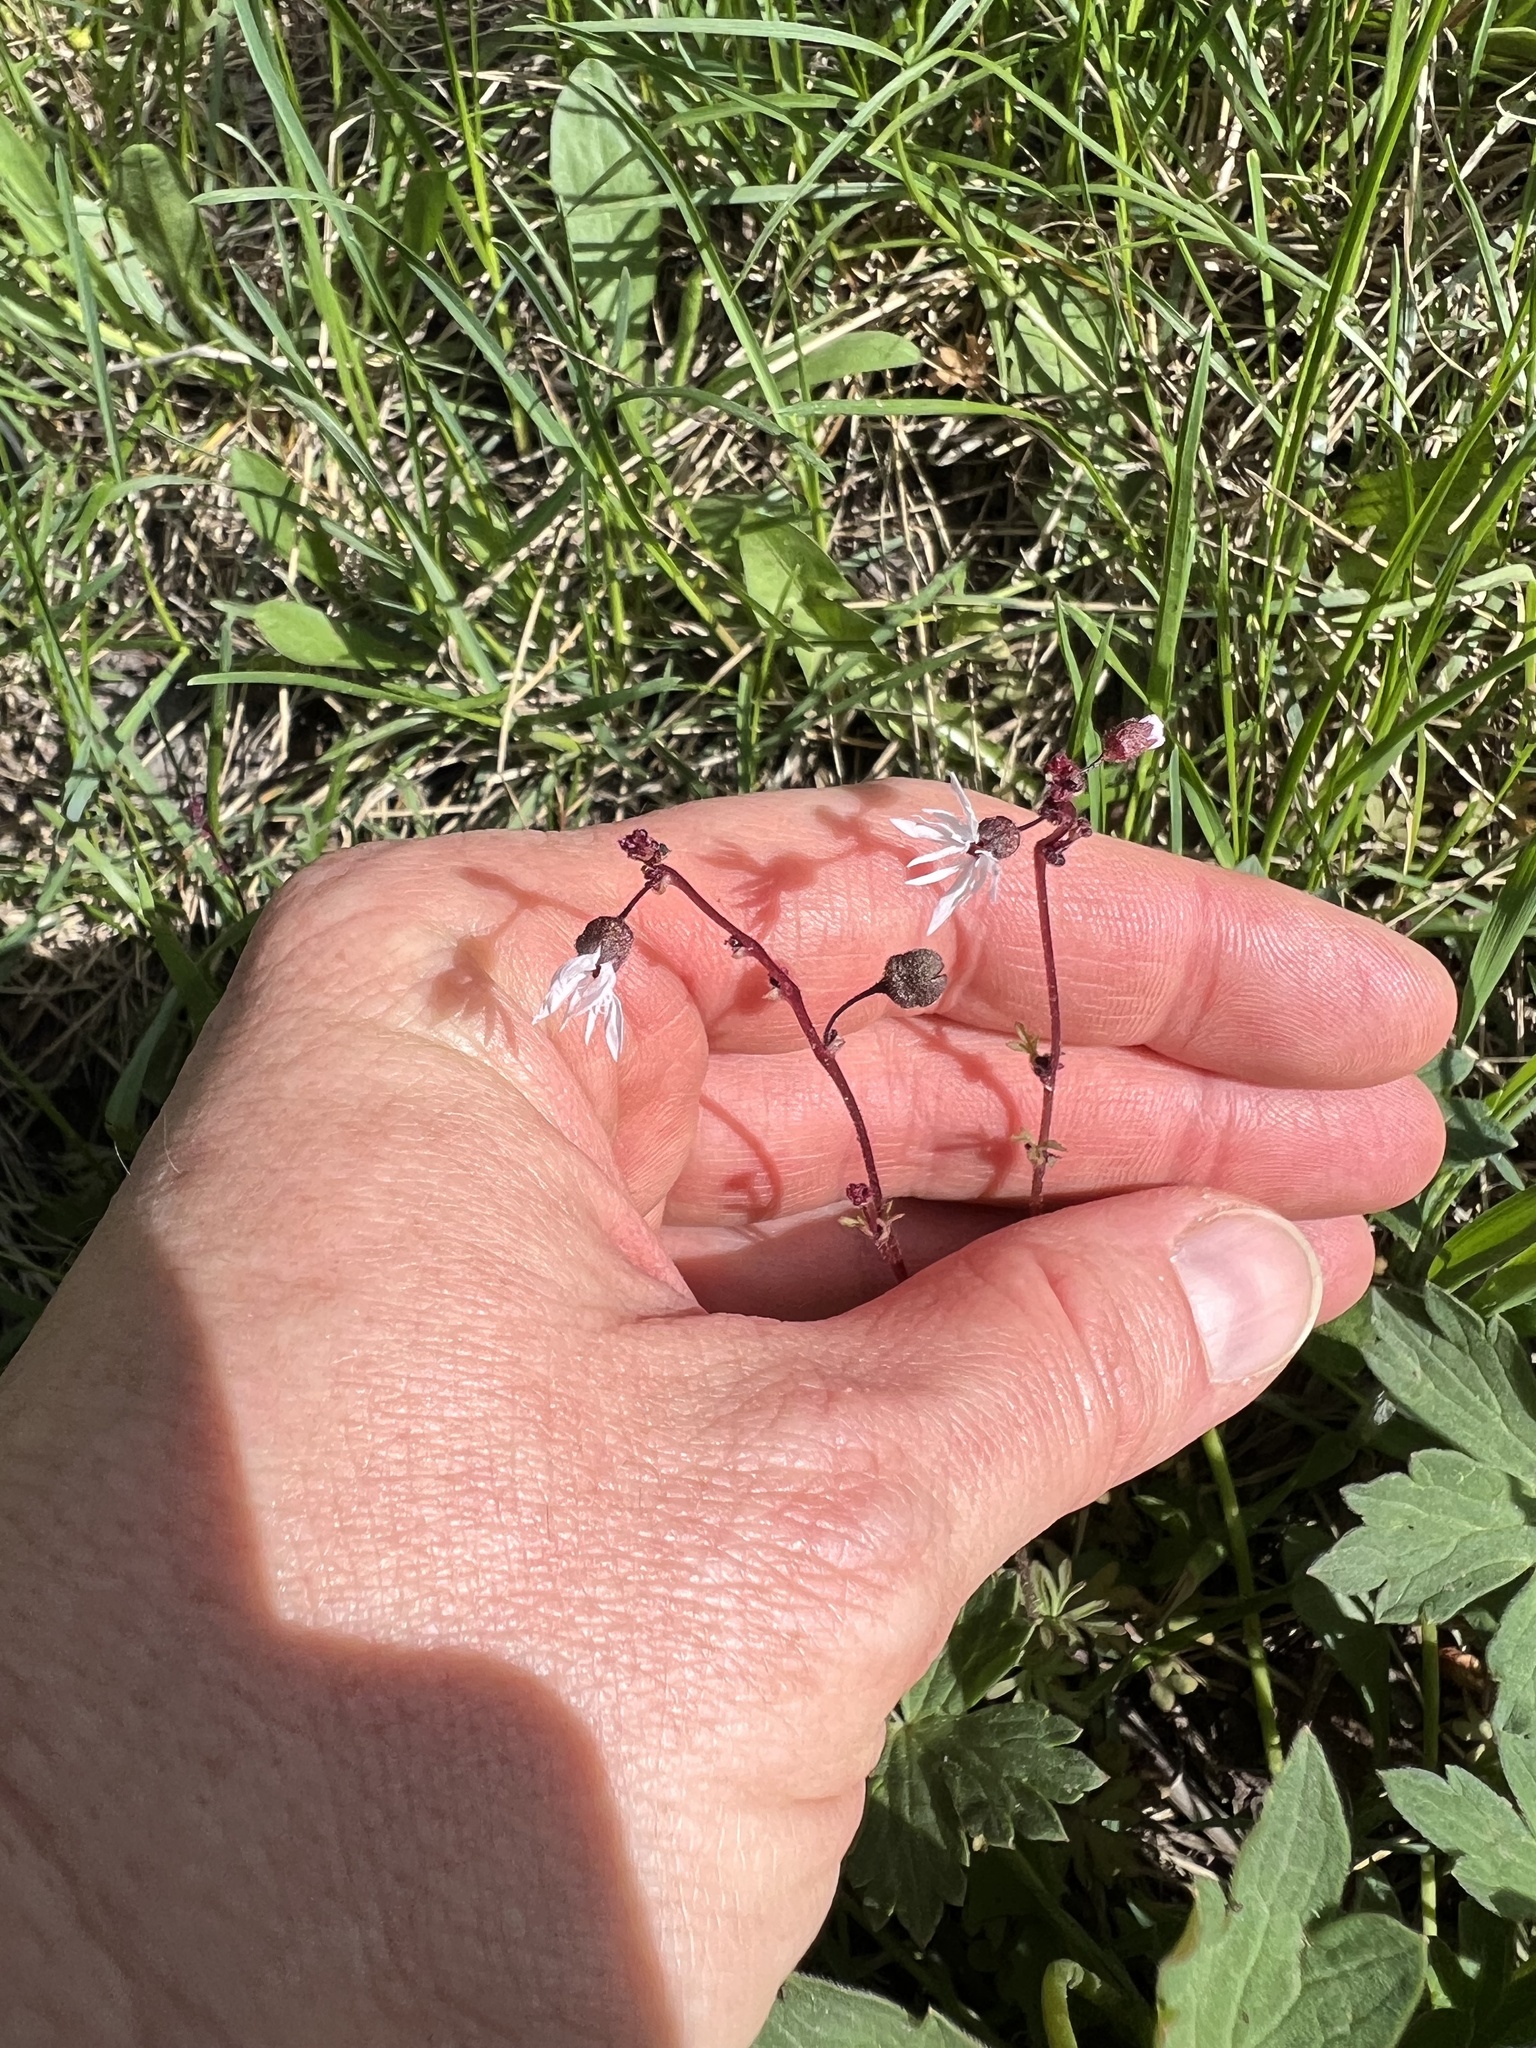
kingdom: Plantae
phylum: Tracheophyta
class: Magnoliopsida
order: Saxifragales
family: Saxifragaceae
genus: Lithophragma
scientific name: Lithophragma glabrum
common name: Bulbous prairie-star
